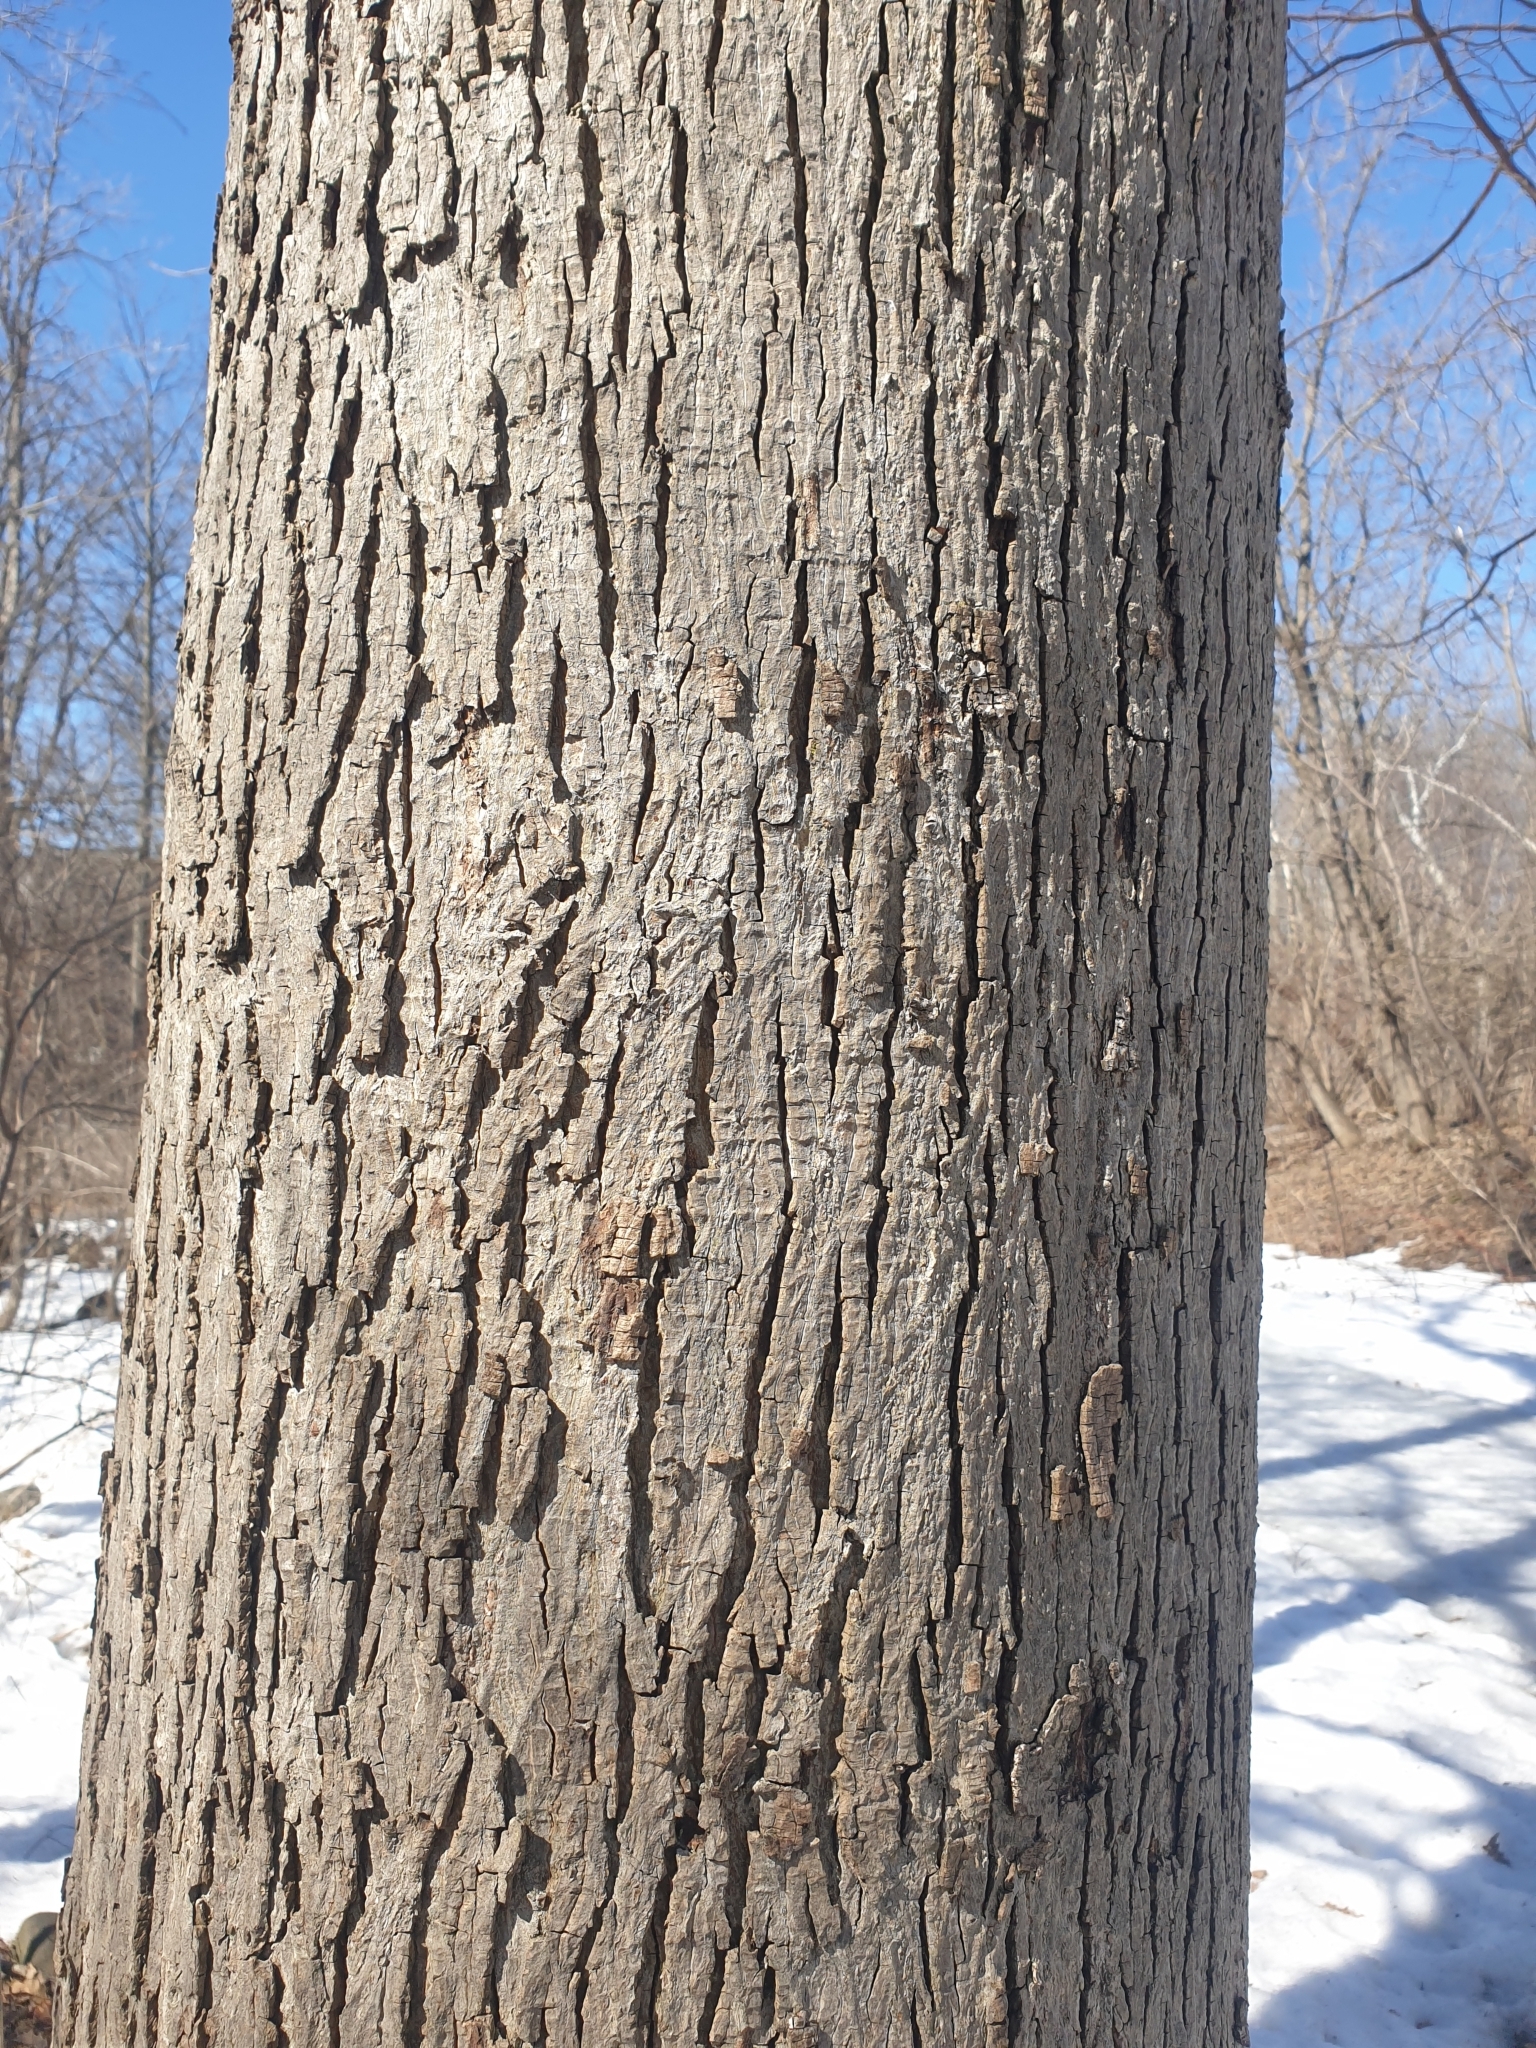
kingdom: Plantae
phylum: Tracheophyta
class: Magnoliopsida
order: Fagales
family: Juglandaceae
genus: Carya
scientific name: Carya cordiformis
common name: Bitternut hickory
